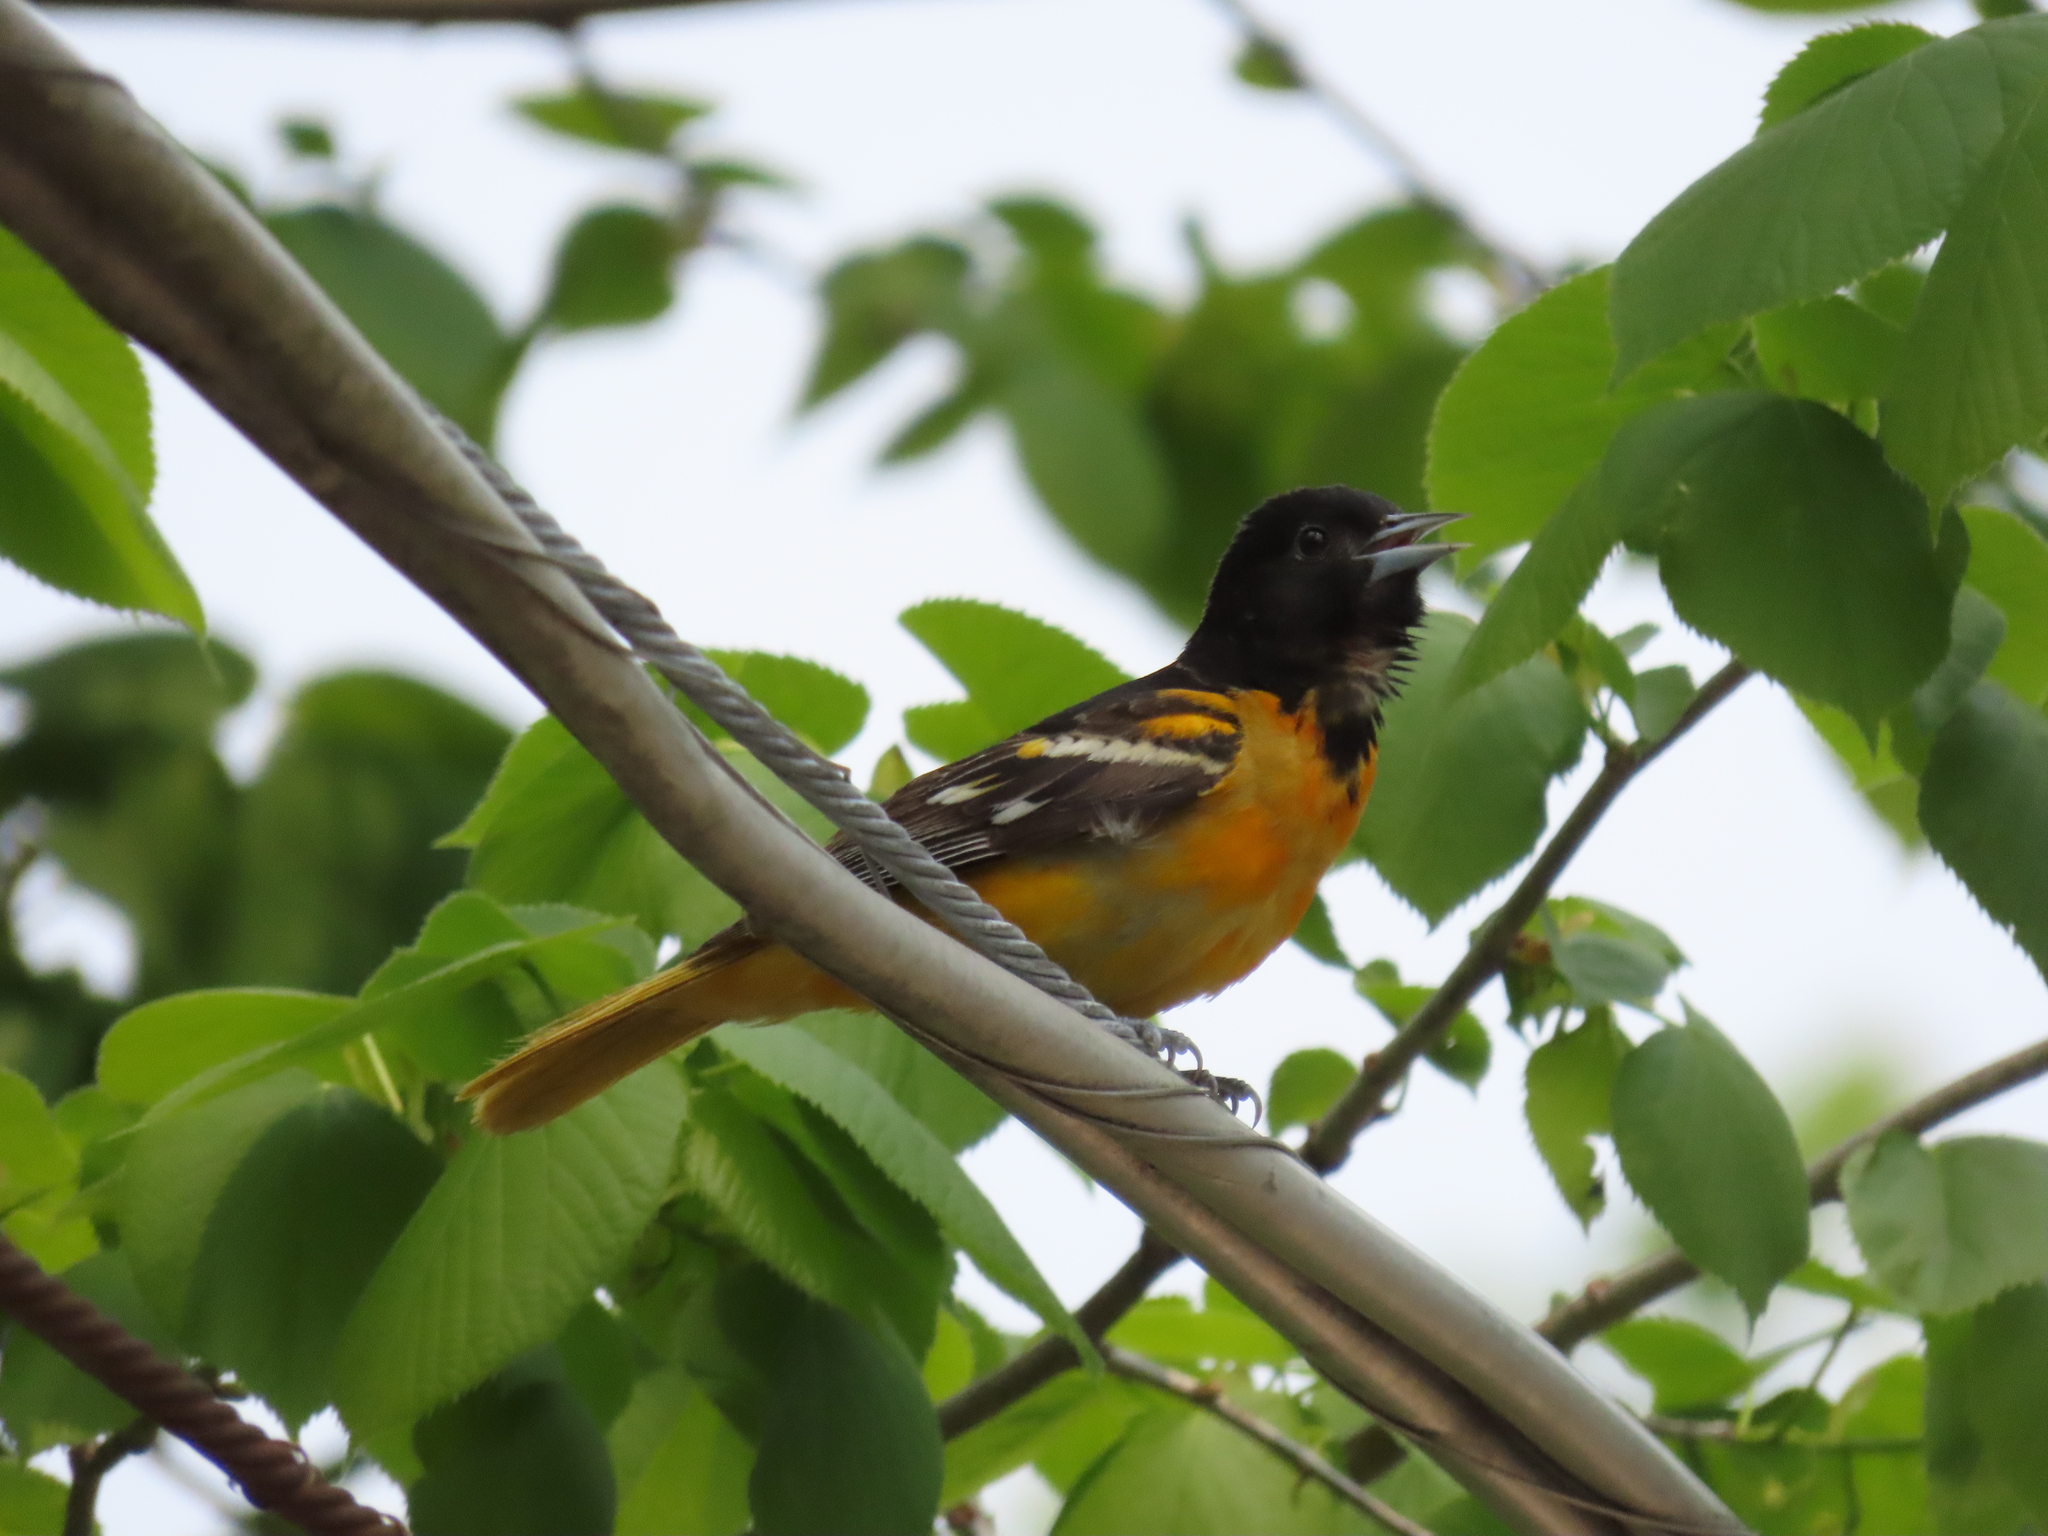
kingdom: Animalia
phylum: Chordata
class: Aves
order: Passeriformes
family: Icteridae
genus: Icterus
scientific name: Icterus galbula
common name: Baltimore oriole
